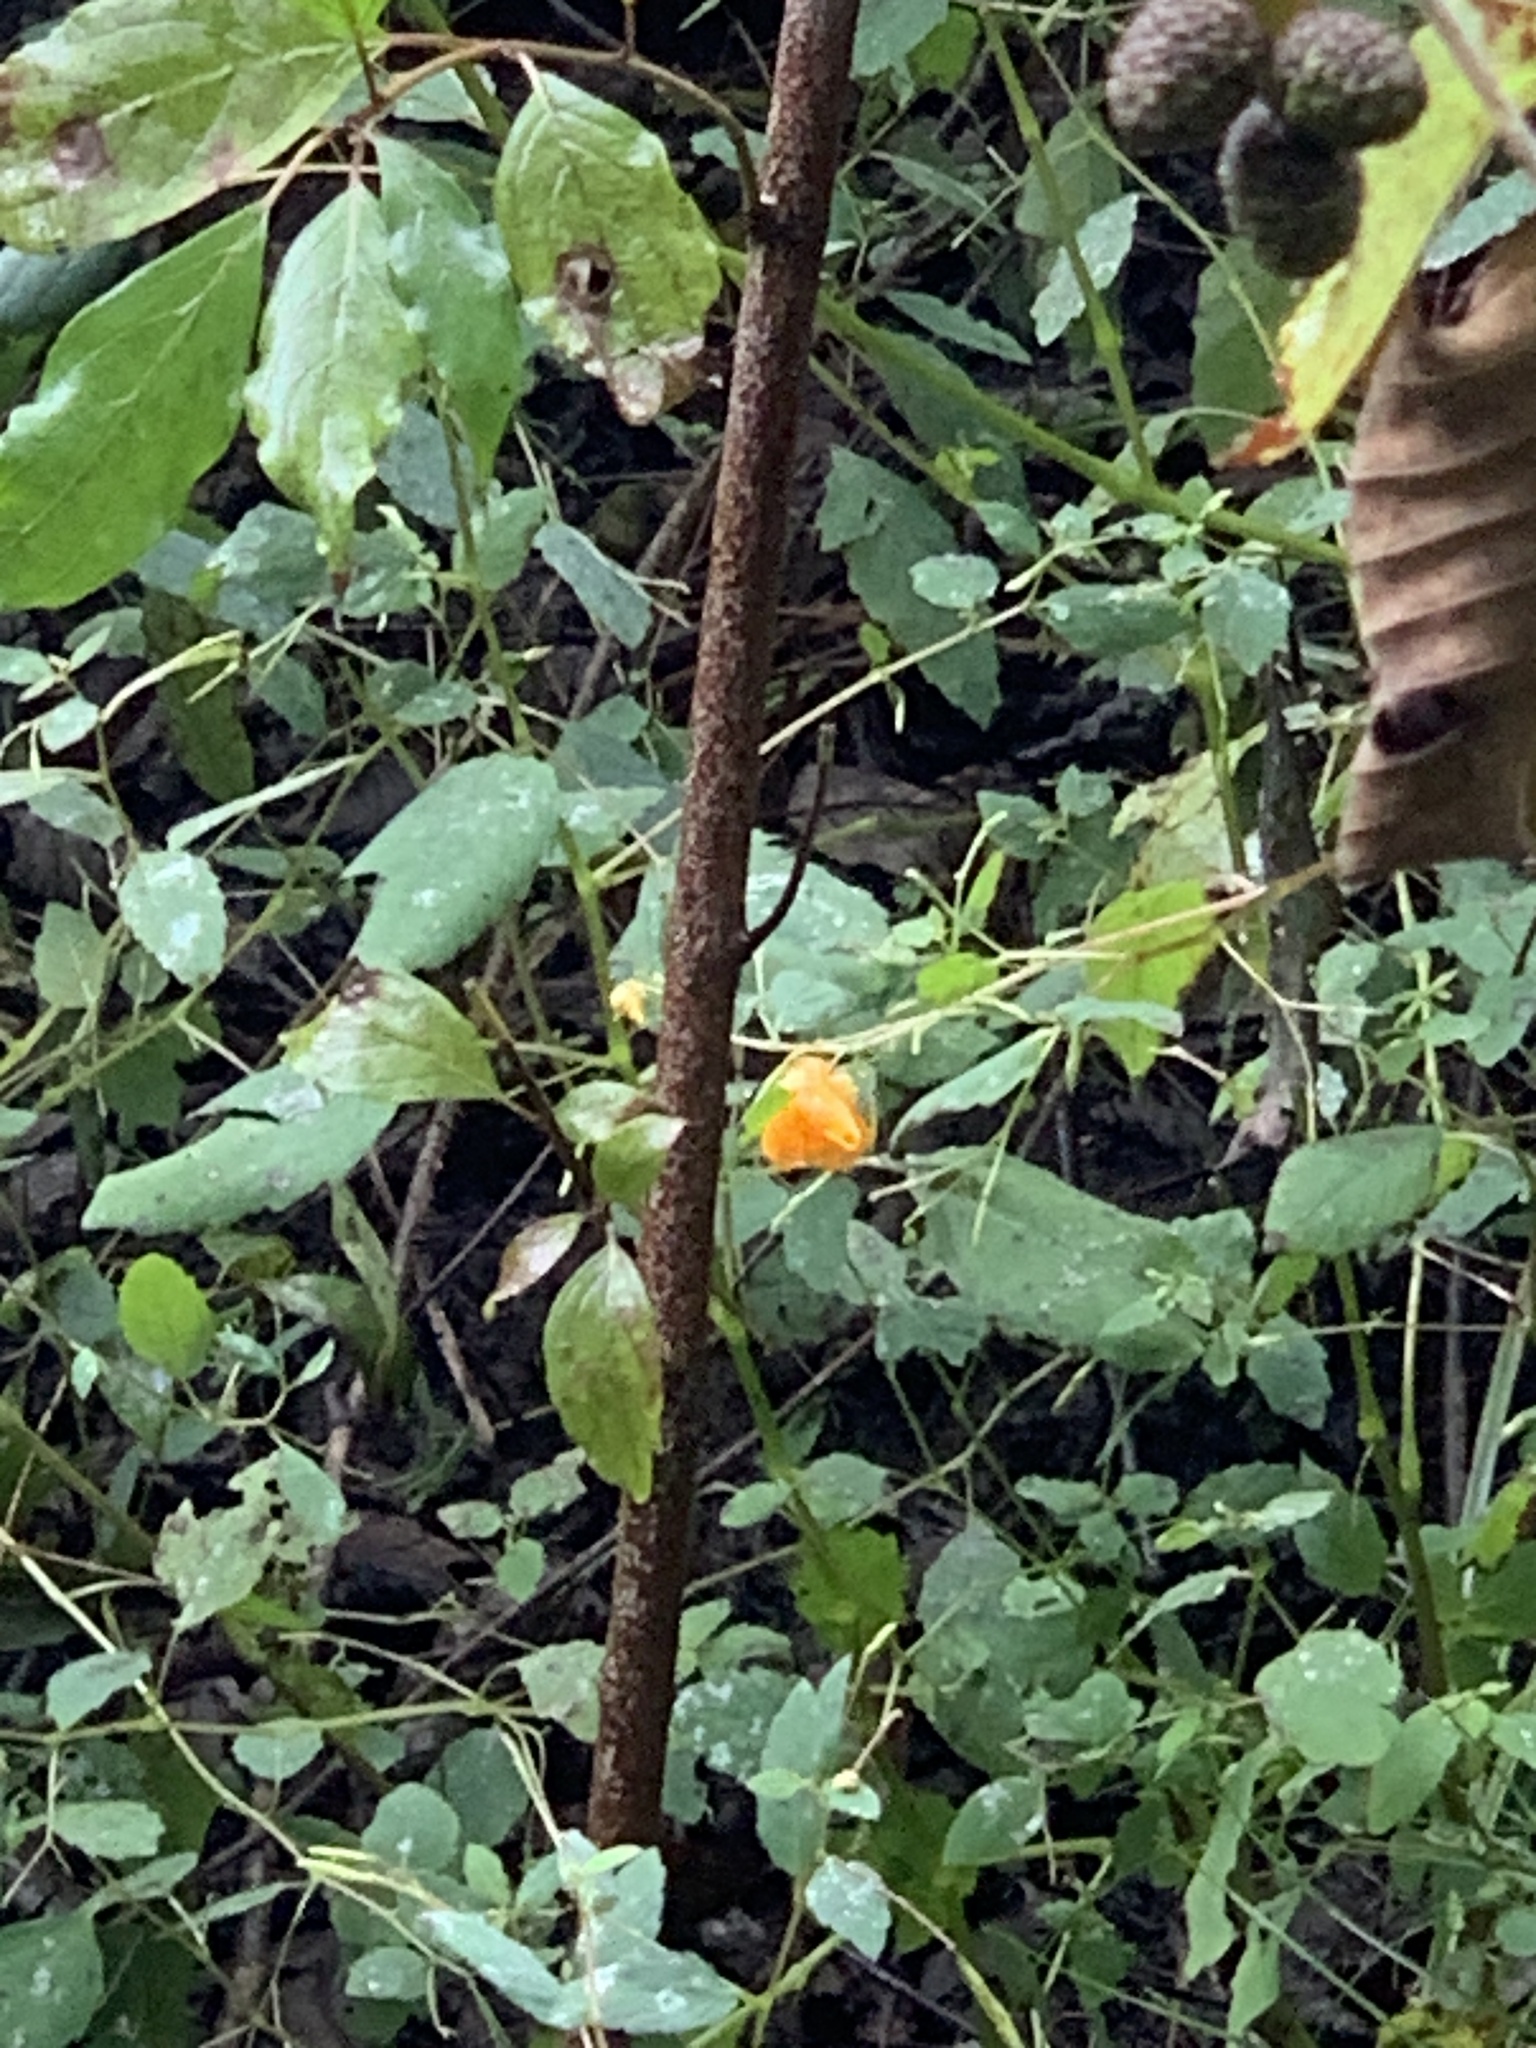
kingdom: Plantae
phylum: Tracheophyta
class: Magnoliopsida
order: Ericales
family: Balsaminaceae
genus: Impatiens
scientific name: Impatiens capensis
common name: Orange balsam
